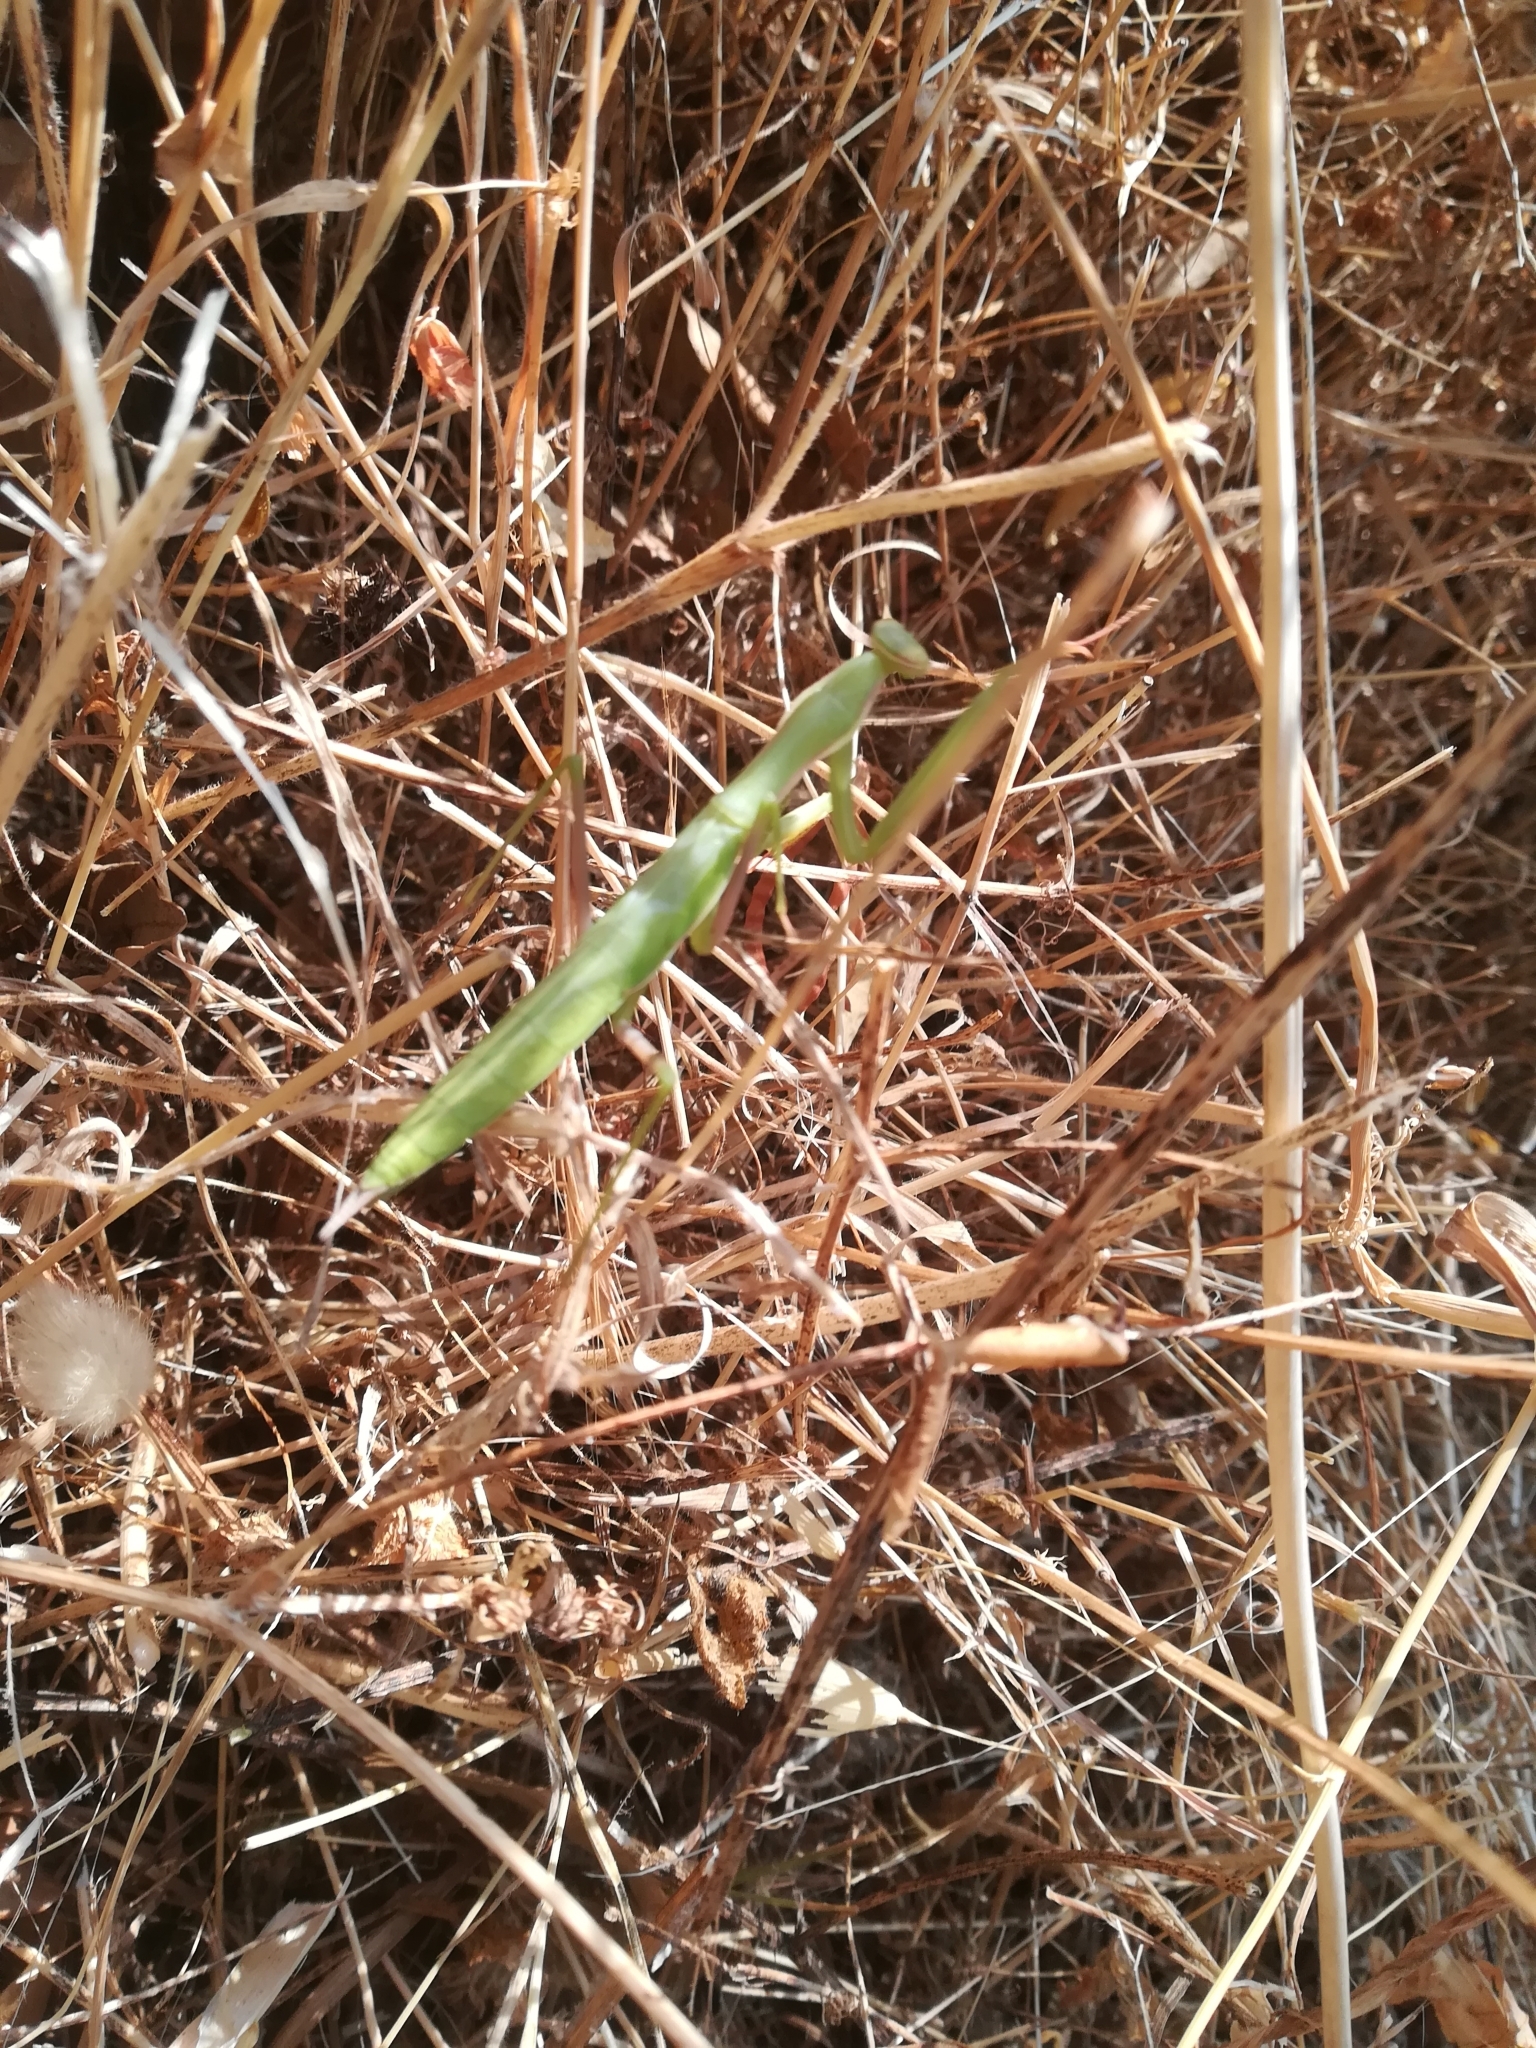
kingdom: Animalia
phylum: Arthropoda
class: Insecta
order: Mantodea
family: Mantidae
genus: Mantis
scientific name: Mantis religiosa
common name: Praying mantis
